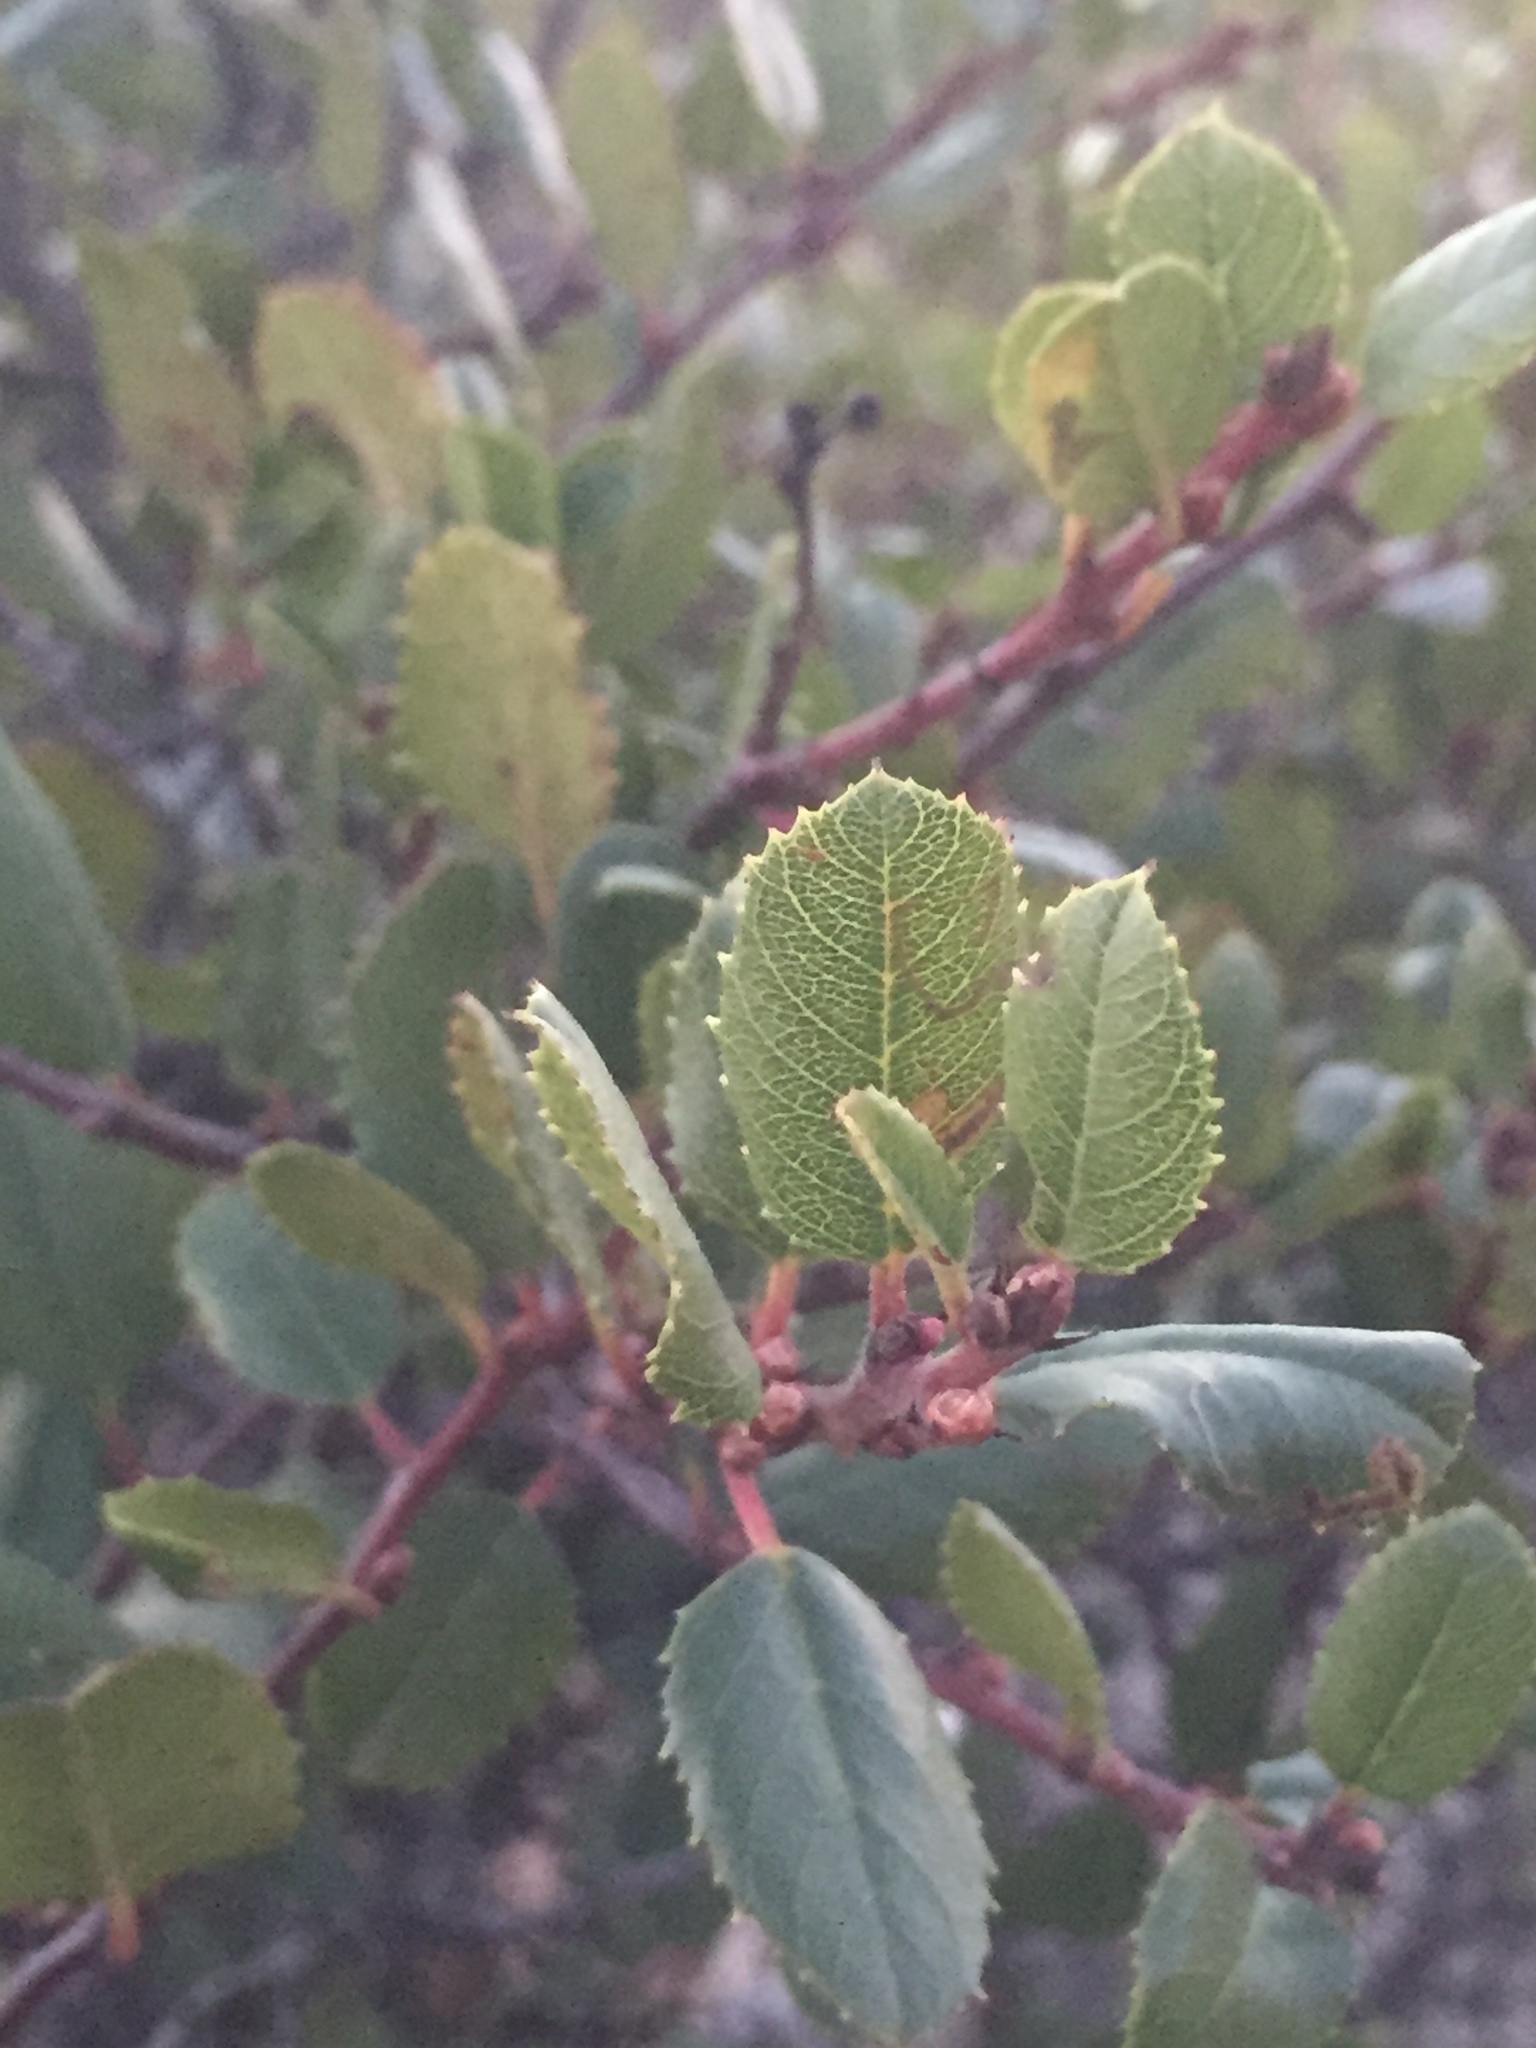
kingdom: Plantae
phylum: Tracheophyta
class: Magnoliopsida
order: Rosales
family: Rhamnaceae
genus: Endotropis
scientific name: Endotropis crocea
